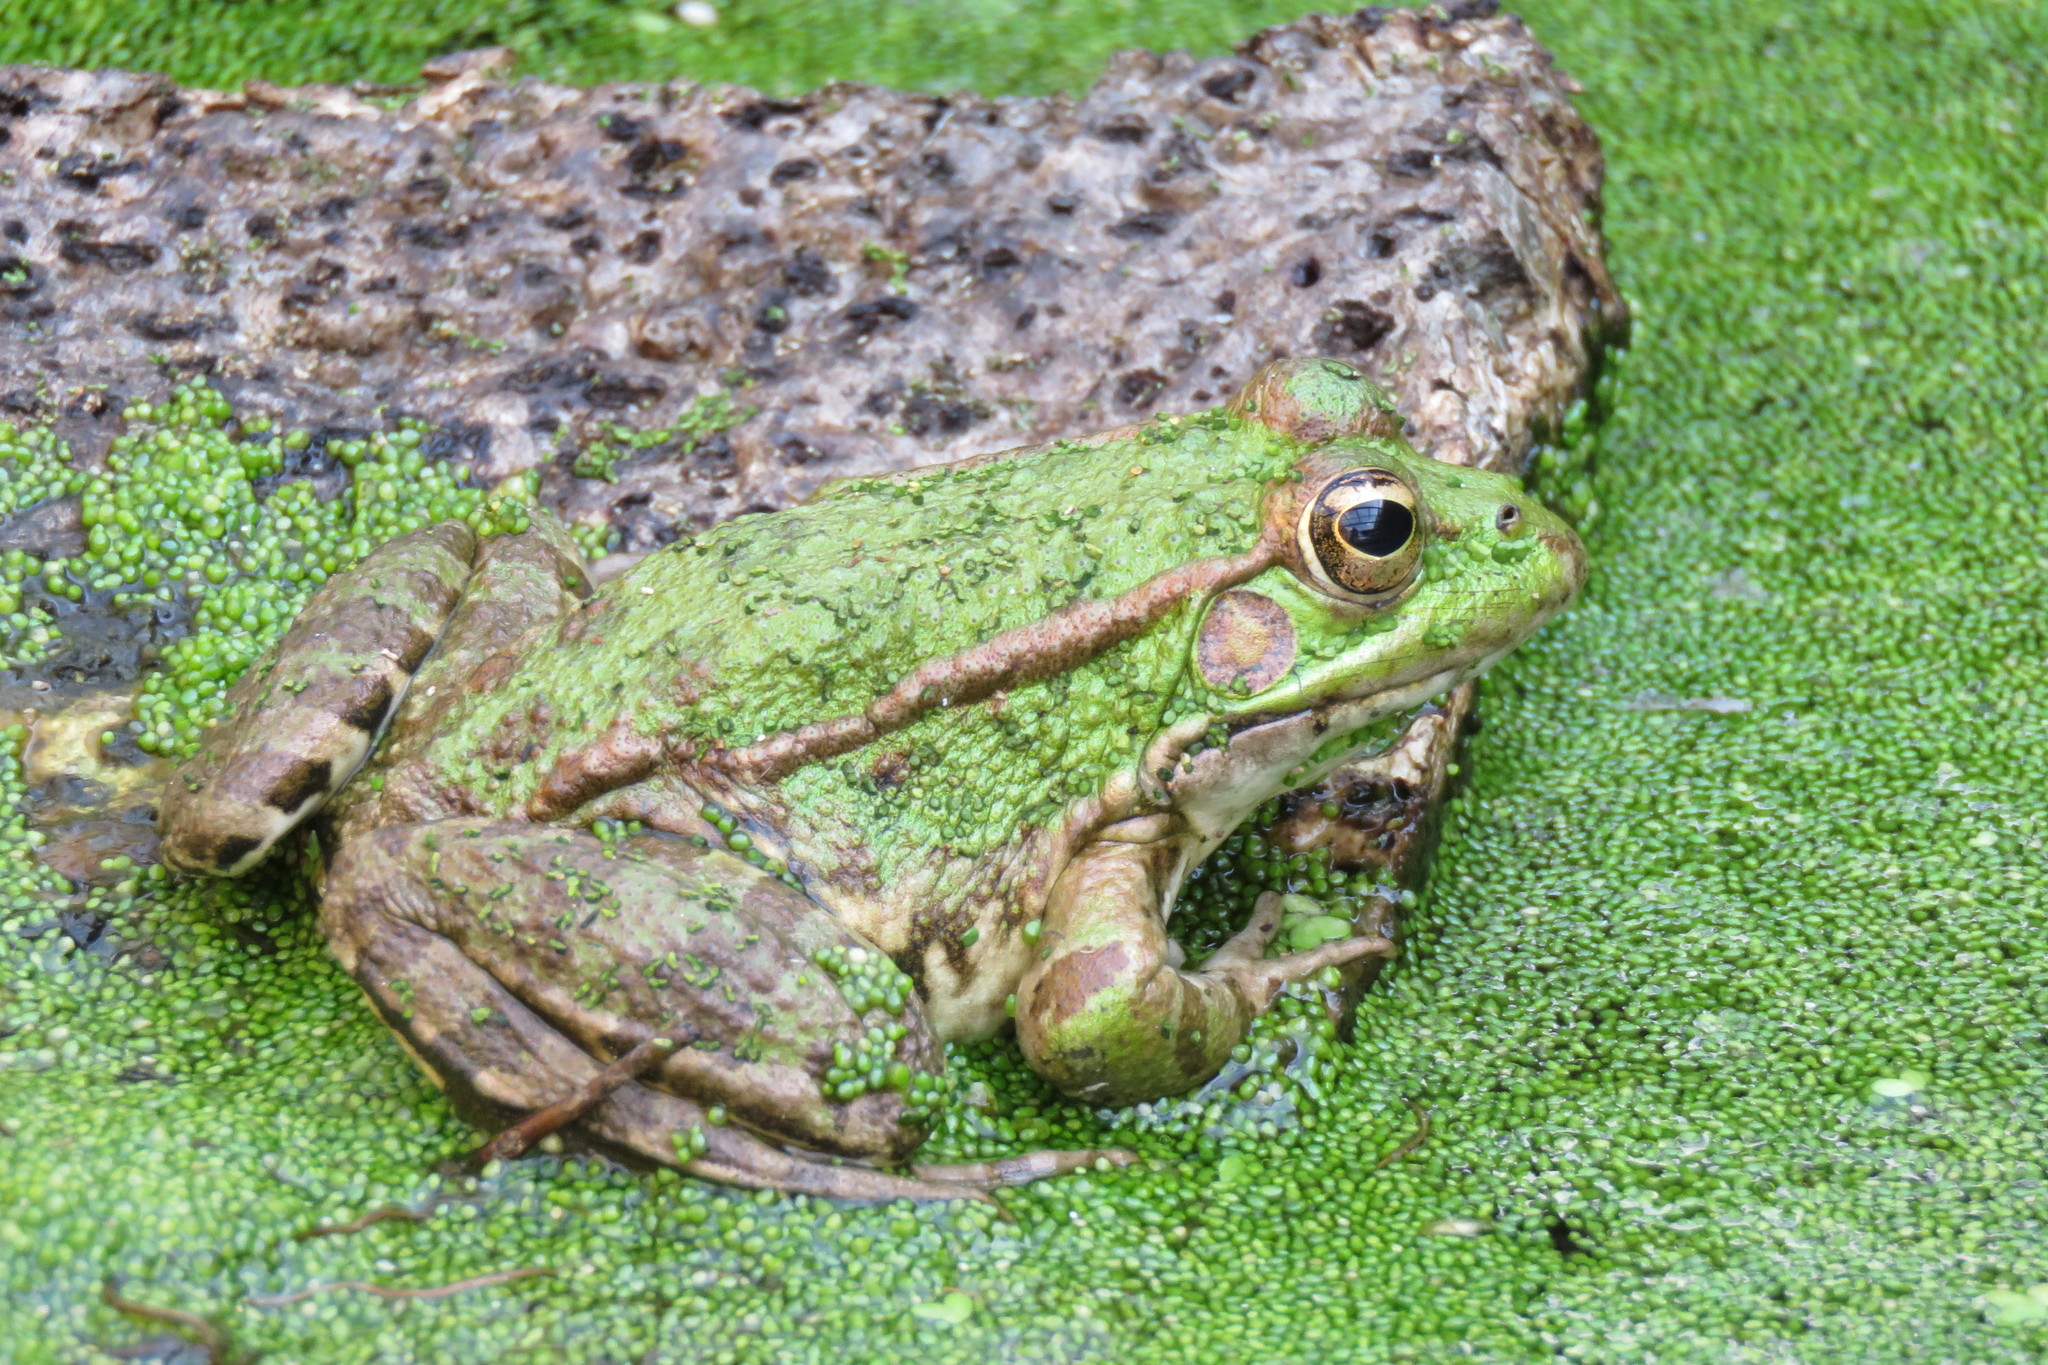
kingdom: Animalia
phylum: Chordata
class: Amphibia
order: Anura
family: Ranidae
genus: Pelophylax
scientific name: Pelophylax perezi
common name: Perez's frog
